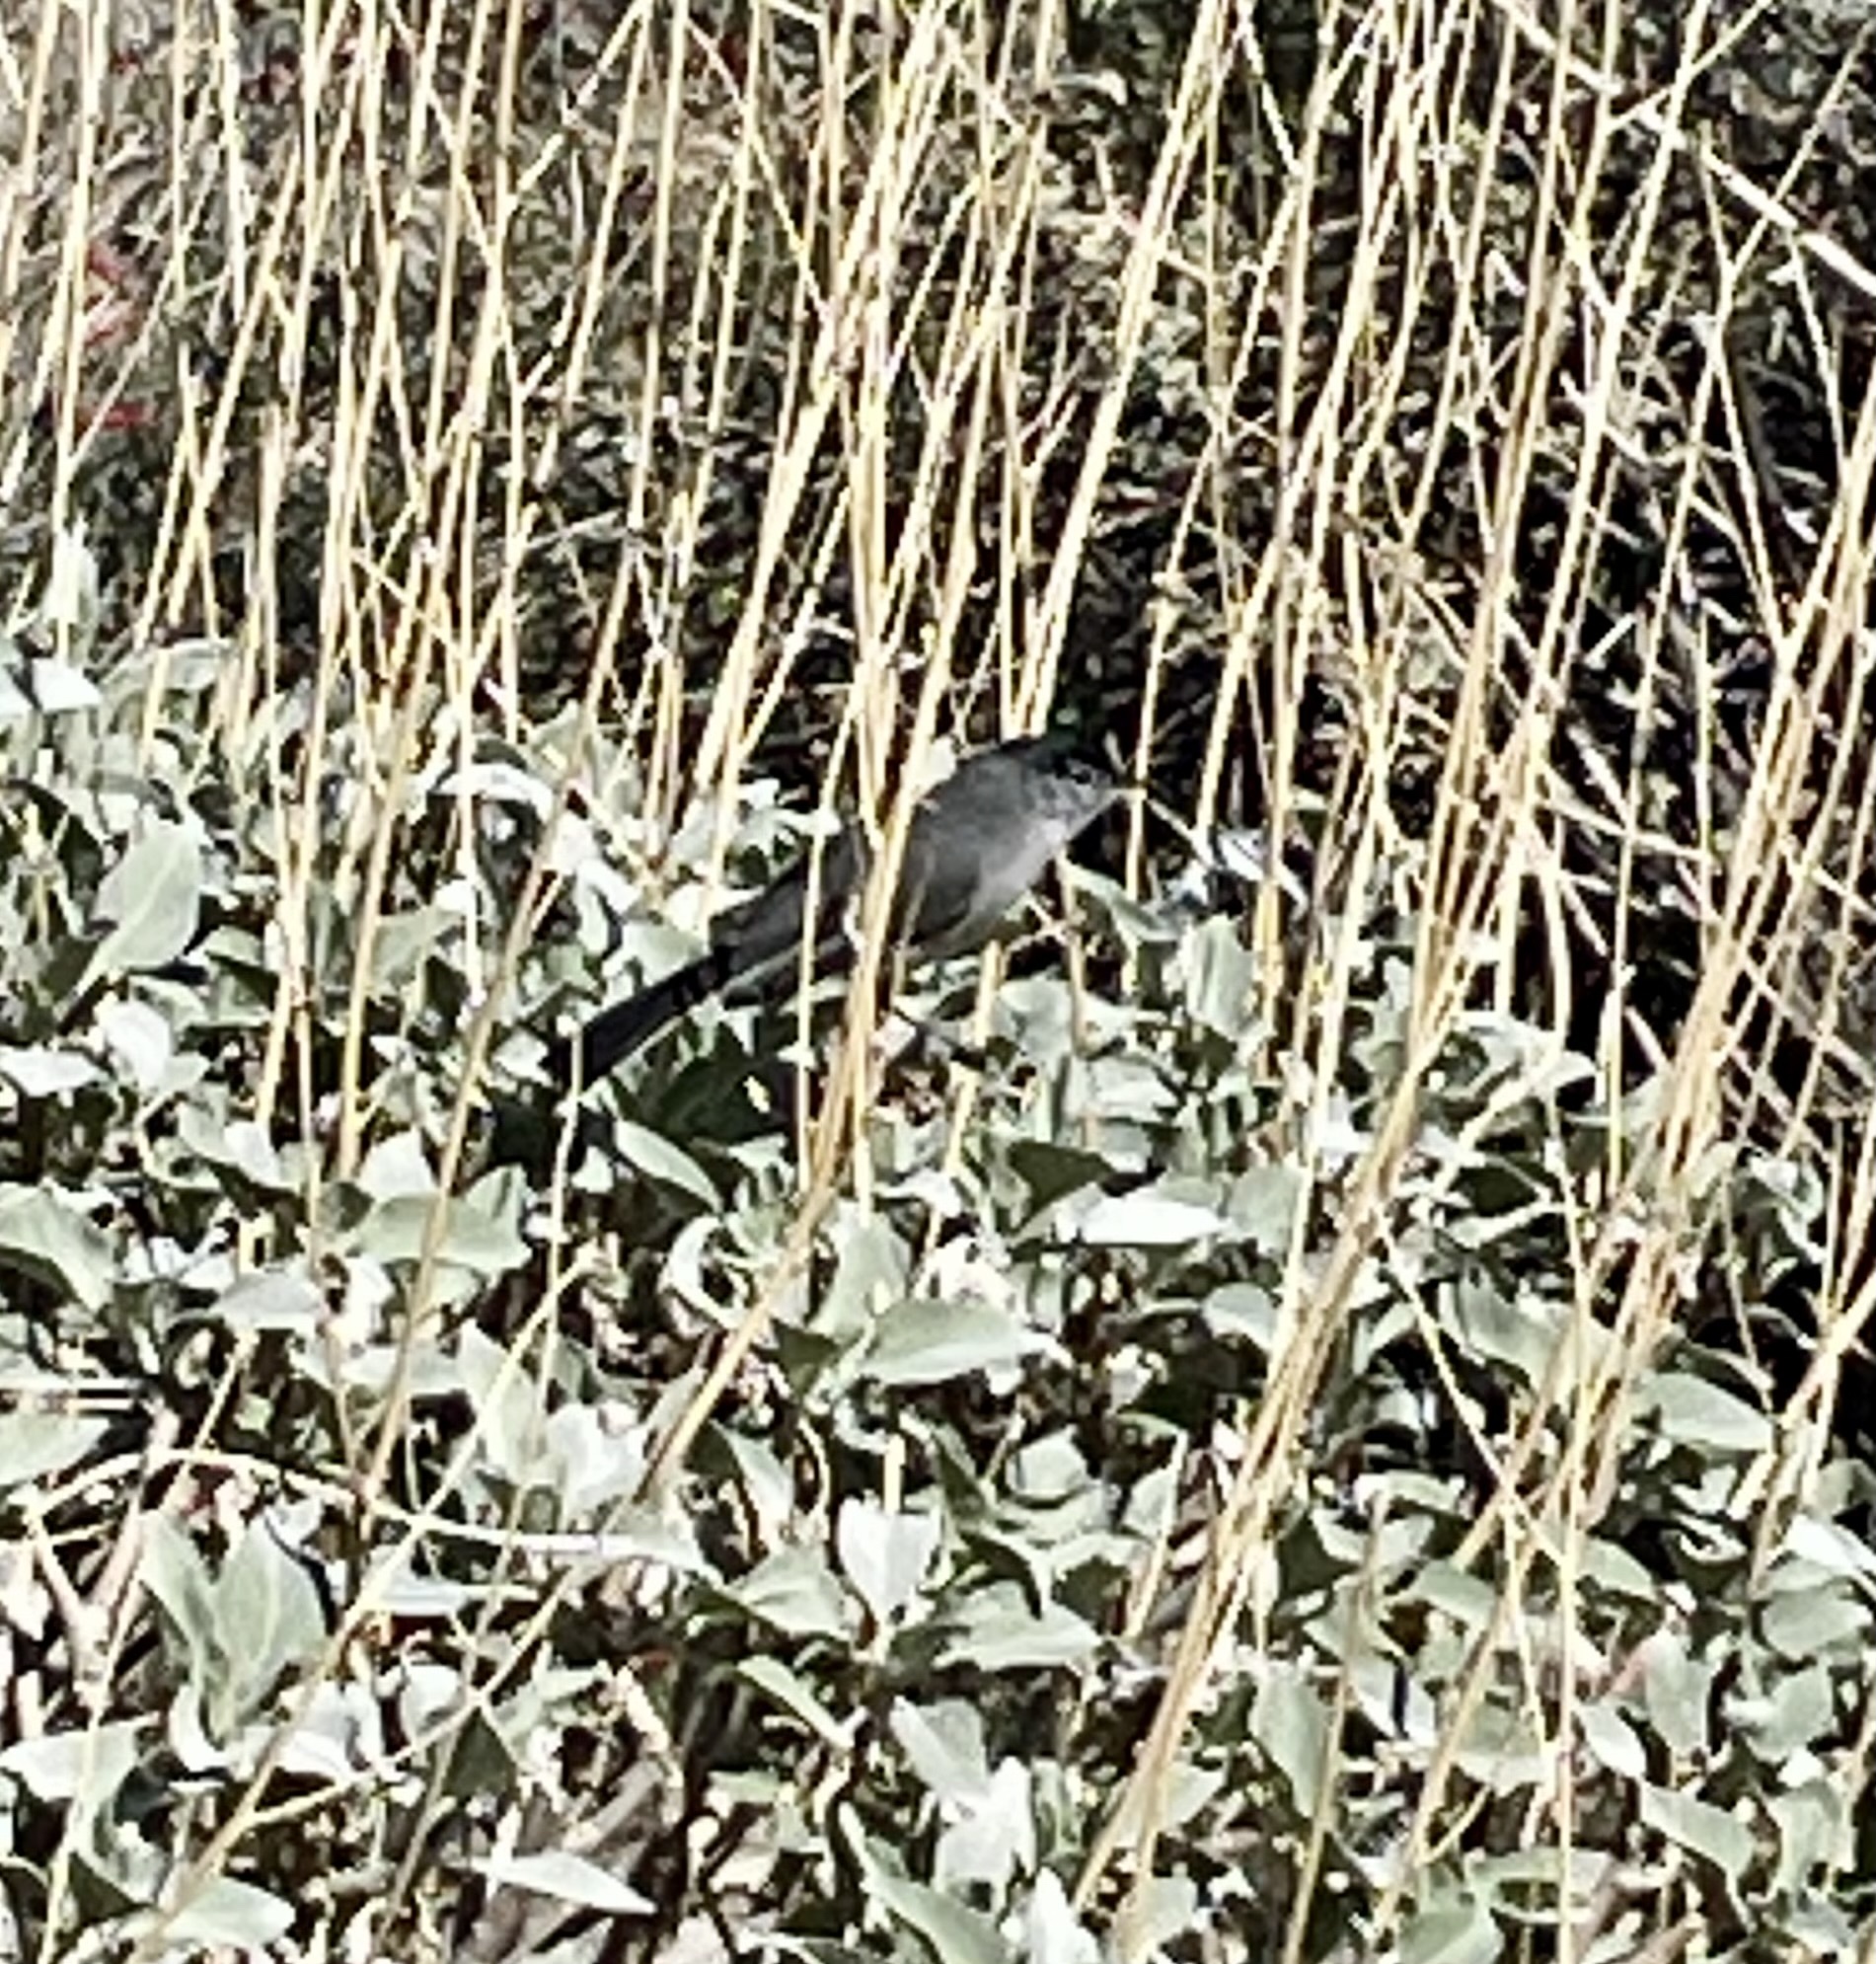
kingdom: Animalia
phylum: Chordata
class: Aves
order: Passeriformes
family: Polioptilidae
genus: Polioptila
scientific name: Polioptila melanura
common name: Black-tailed gnatcatcher
